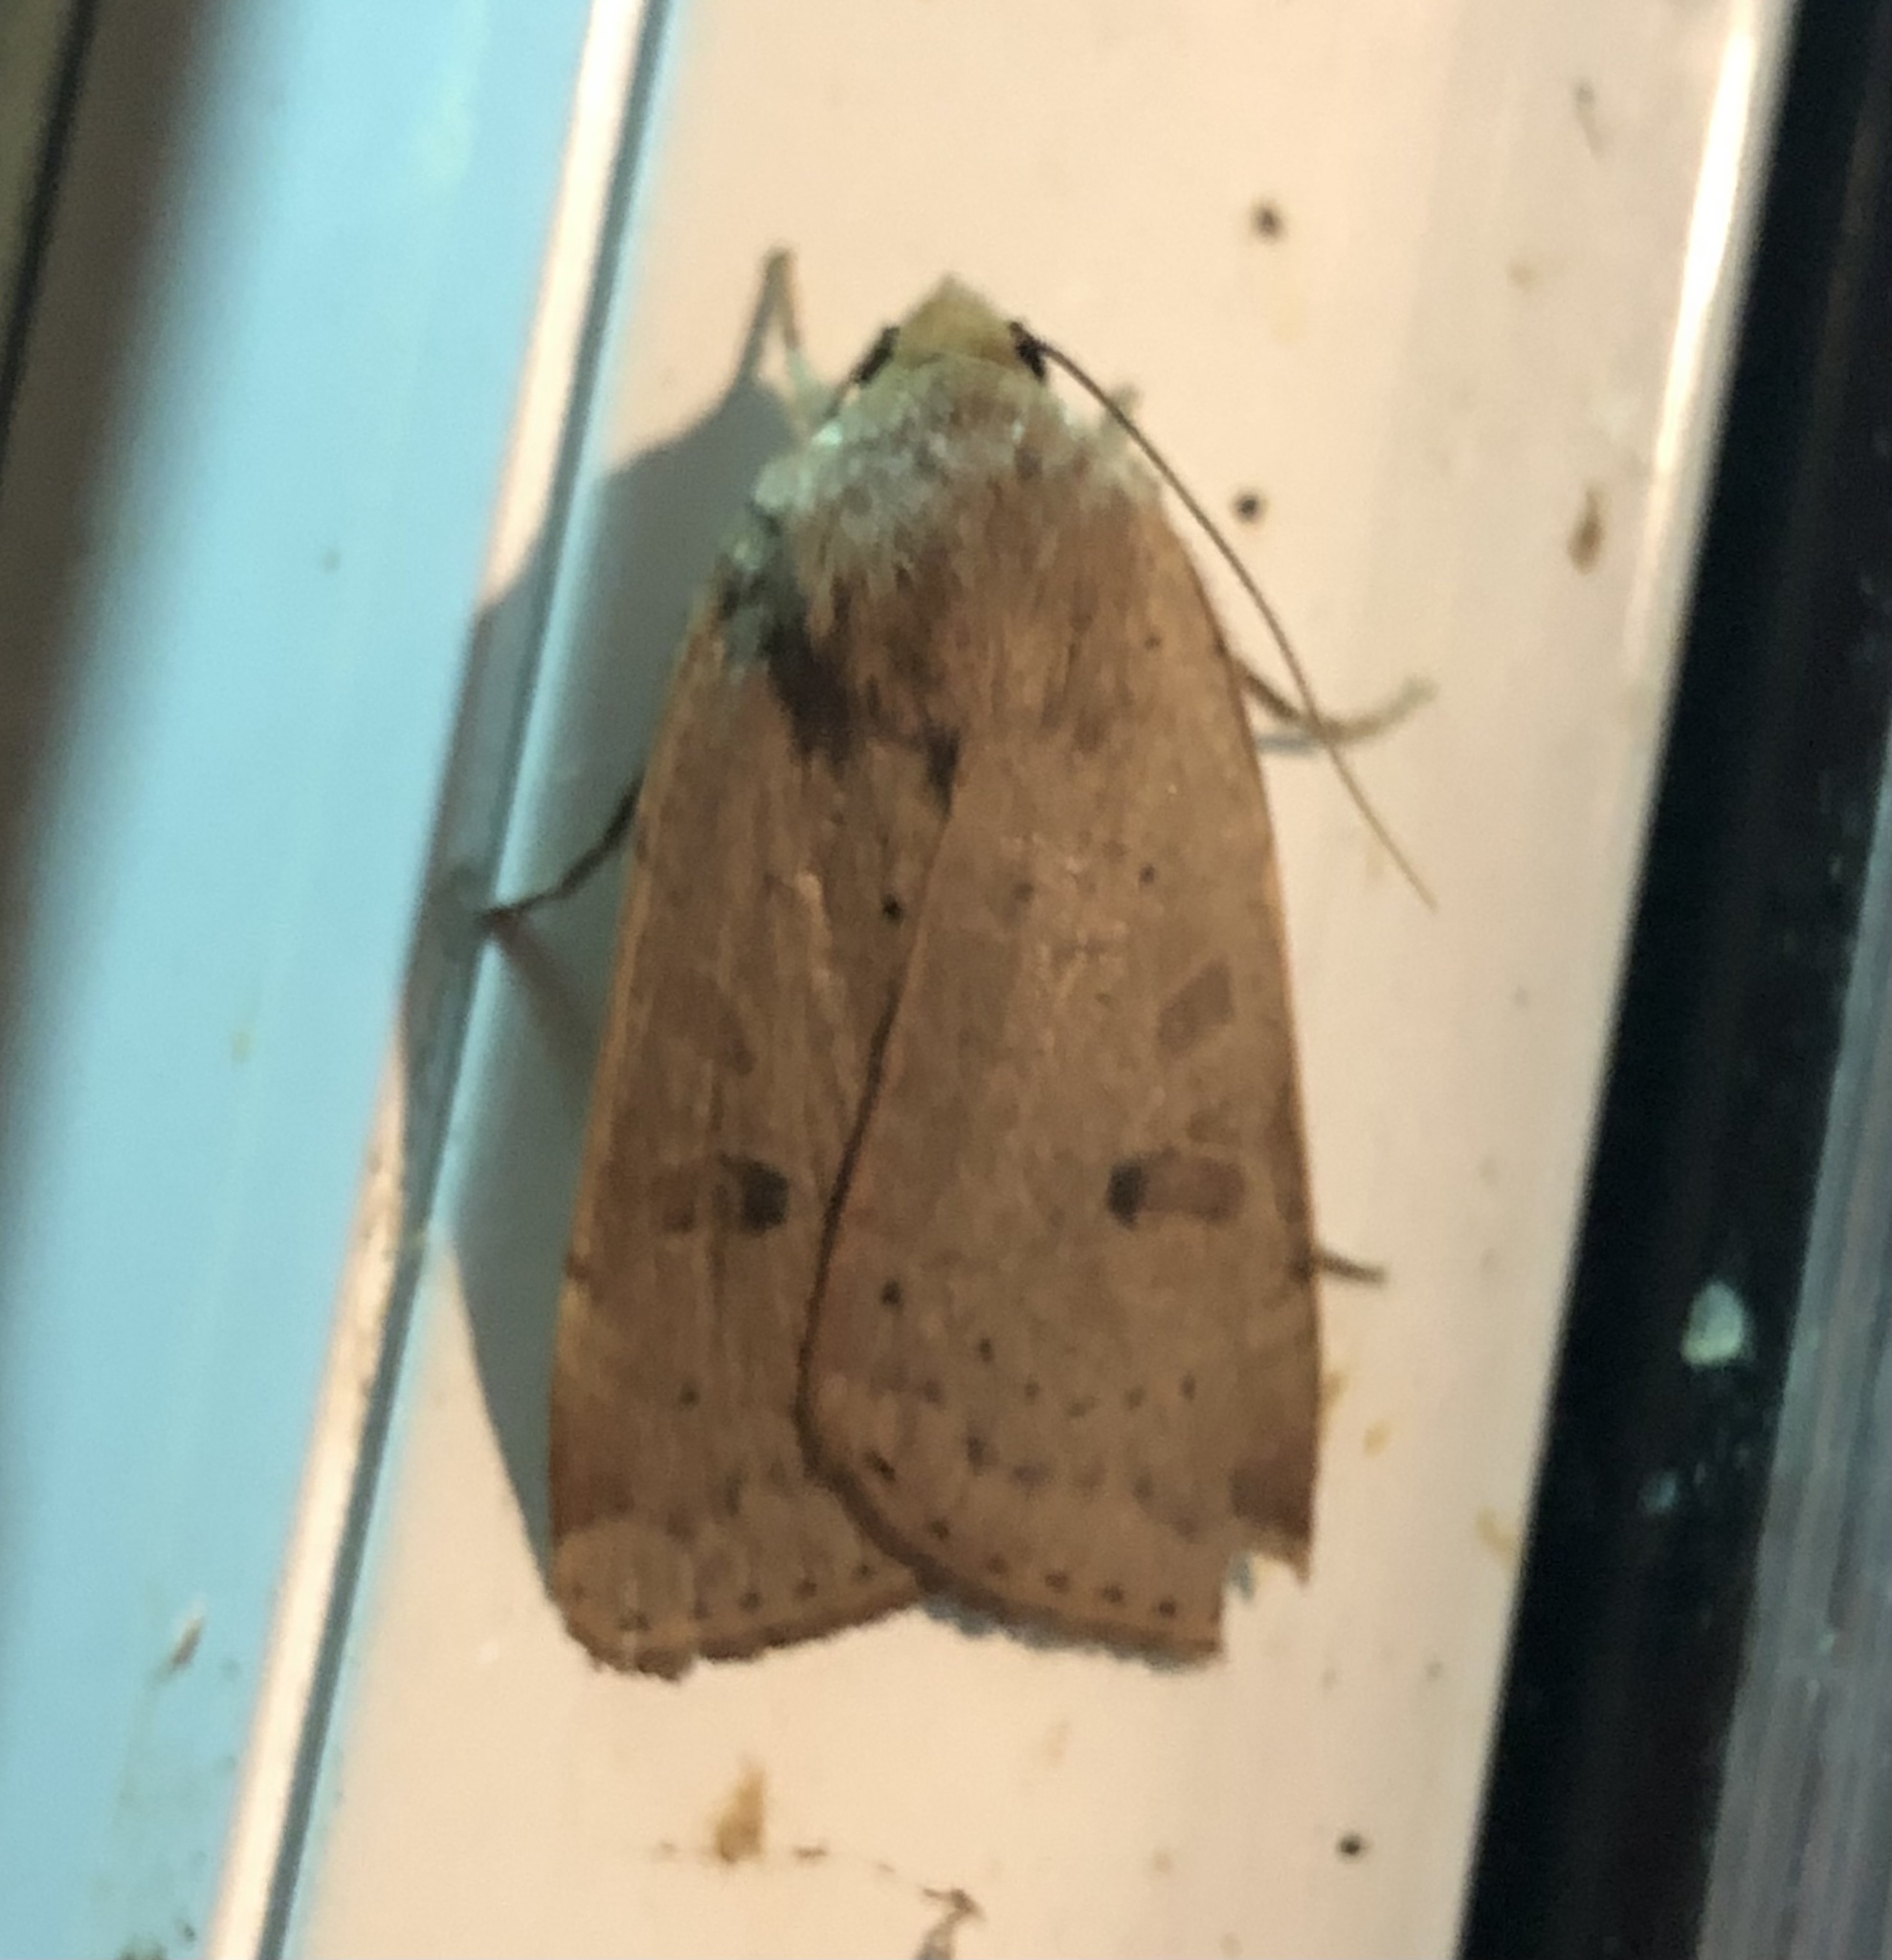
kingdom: Animalia
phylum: Arthropoda
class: Insecta
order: Lepidoptera
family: Noctuidae
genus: Noctua
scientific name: Noctua comes
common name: Lesser yellow underwing
